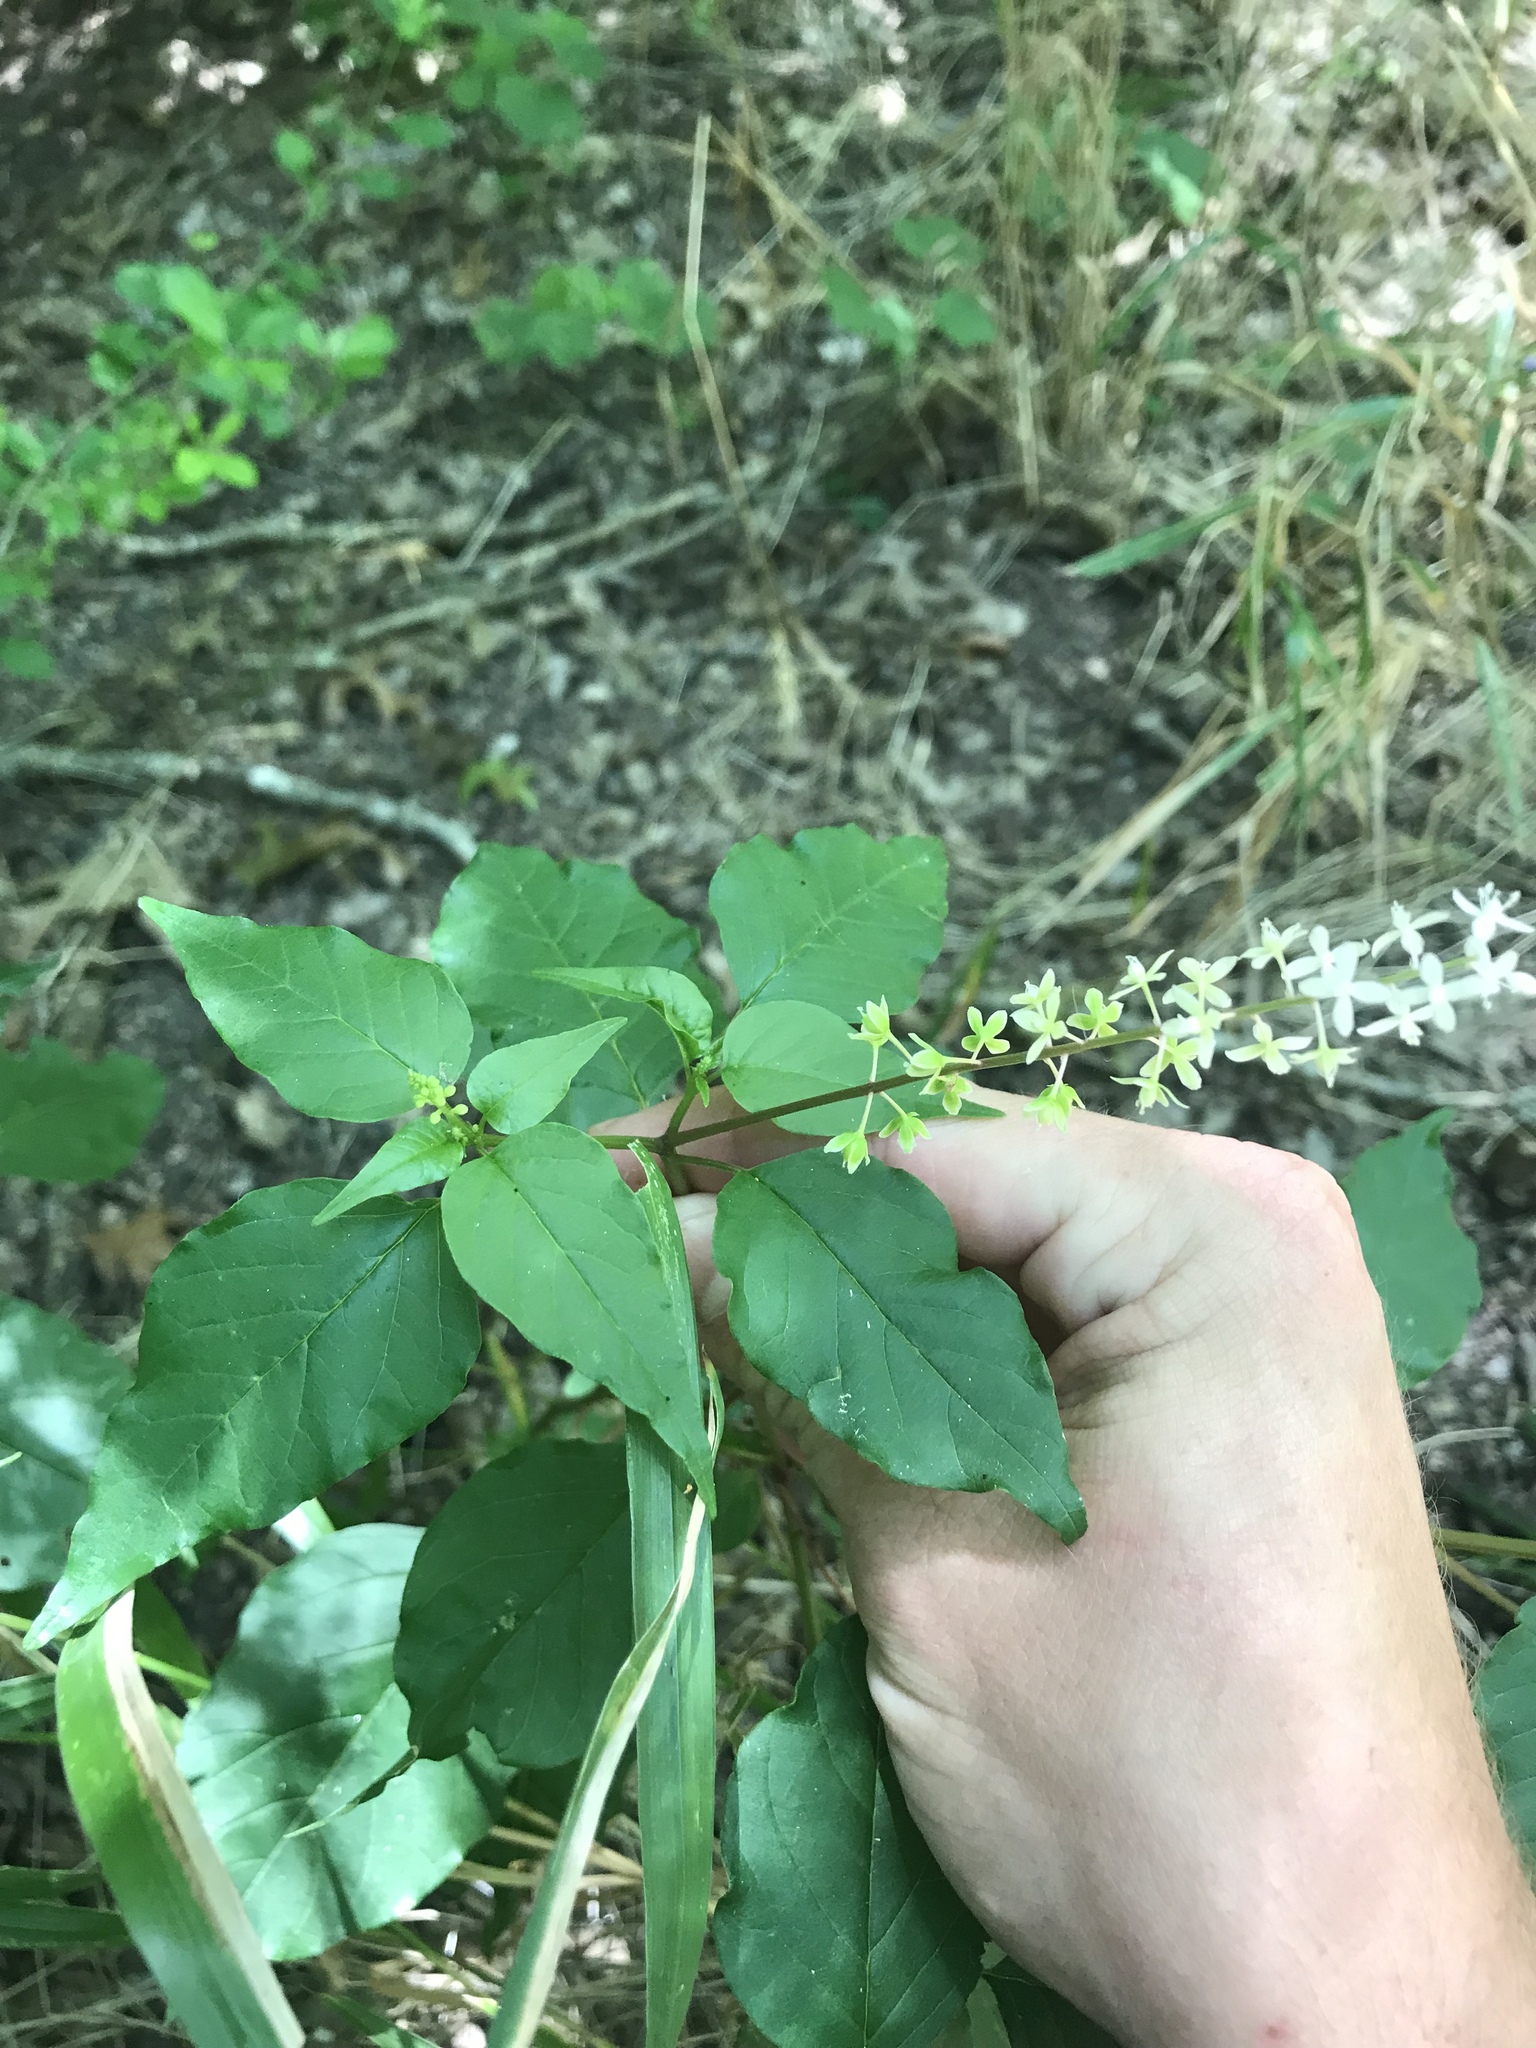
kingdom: Plantae
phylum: Tracheophyta
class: Magnoliopsida
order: Caryophyllales
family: Phytolaccaceae
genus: Rivina
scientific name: Rivina humilis
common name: Rougeplant
